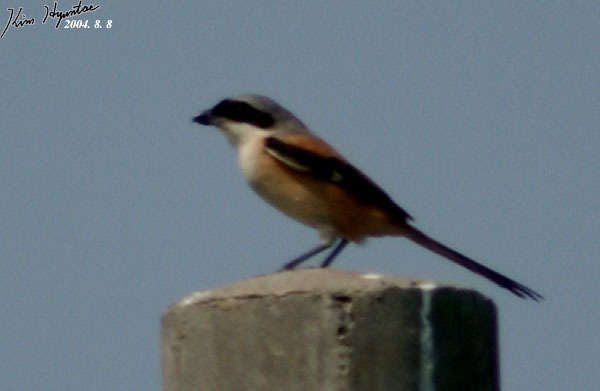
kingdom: Animalia
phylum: Chordata
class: Aves
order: Passeriformes
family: Laniidae
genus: Lanius
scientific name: Lanius schach
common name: Long-tailed shrike
